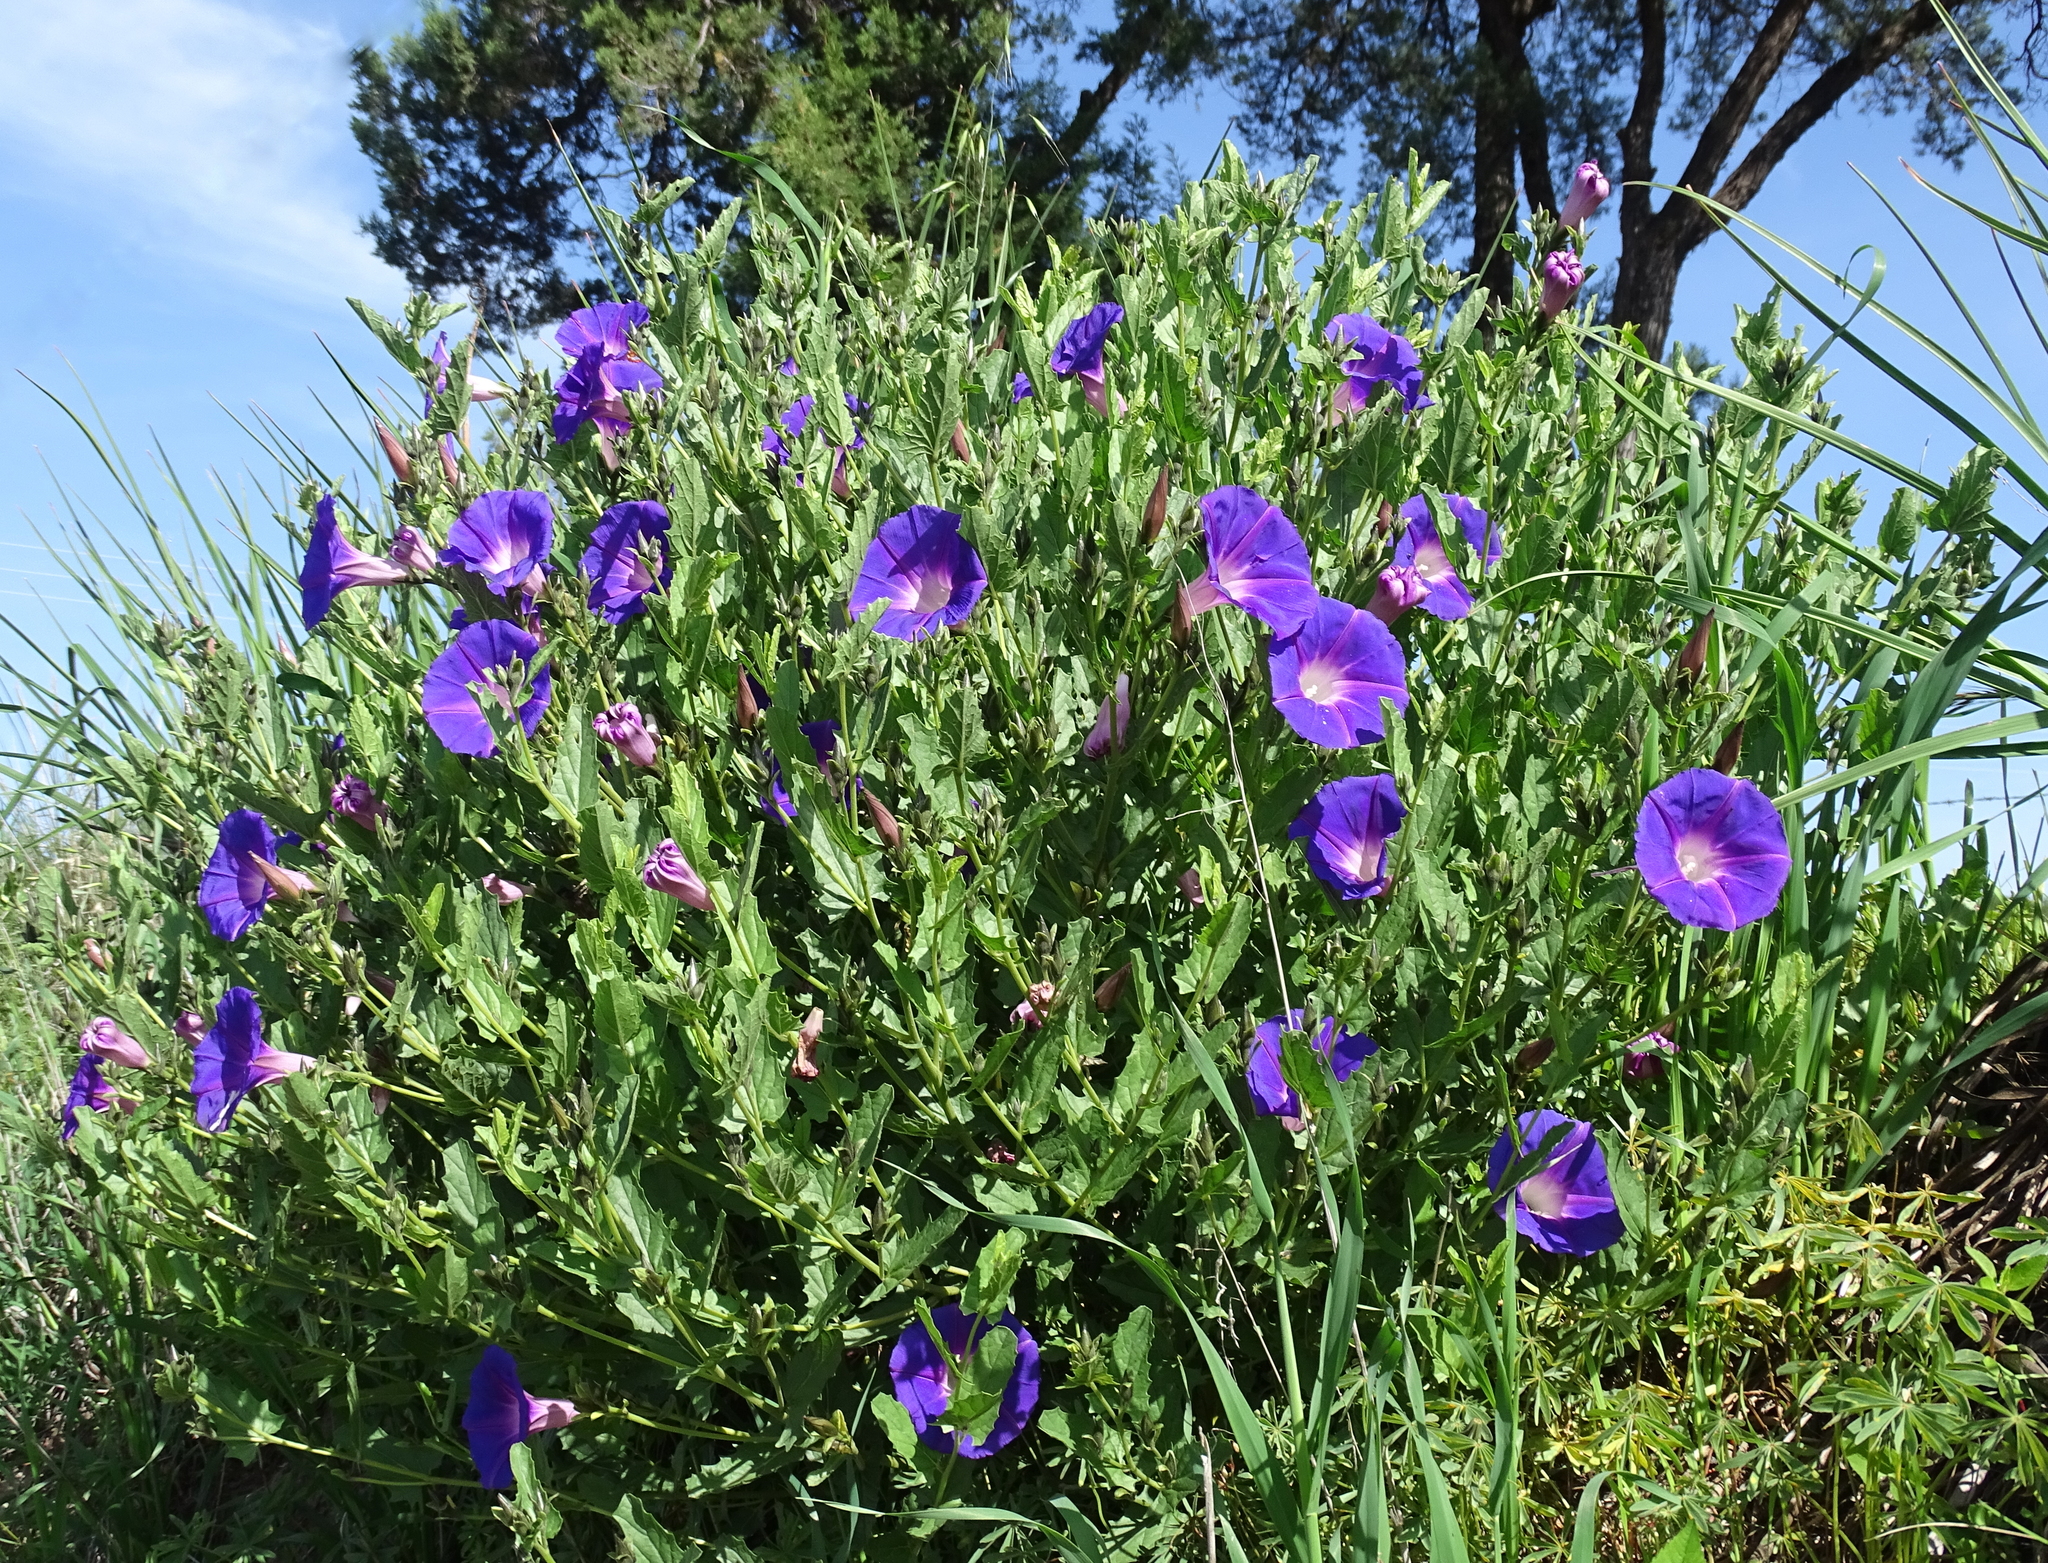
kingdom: Plantae
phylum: Tracheophyta
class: Magnoliopsida
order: Solanales
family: Convolvulaceae
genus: Ipomoea
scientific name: Ipomoea stans
